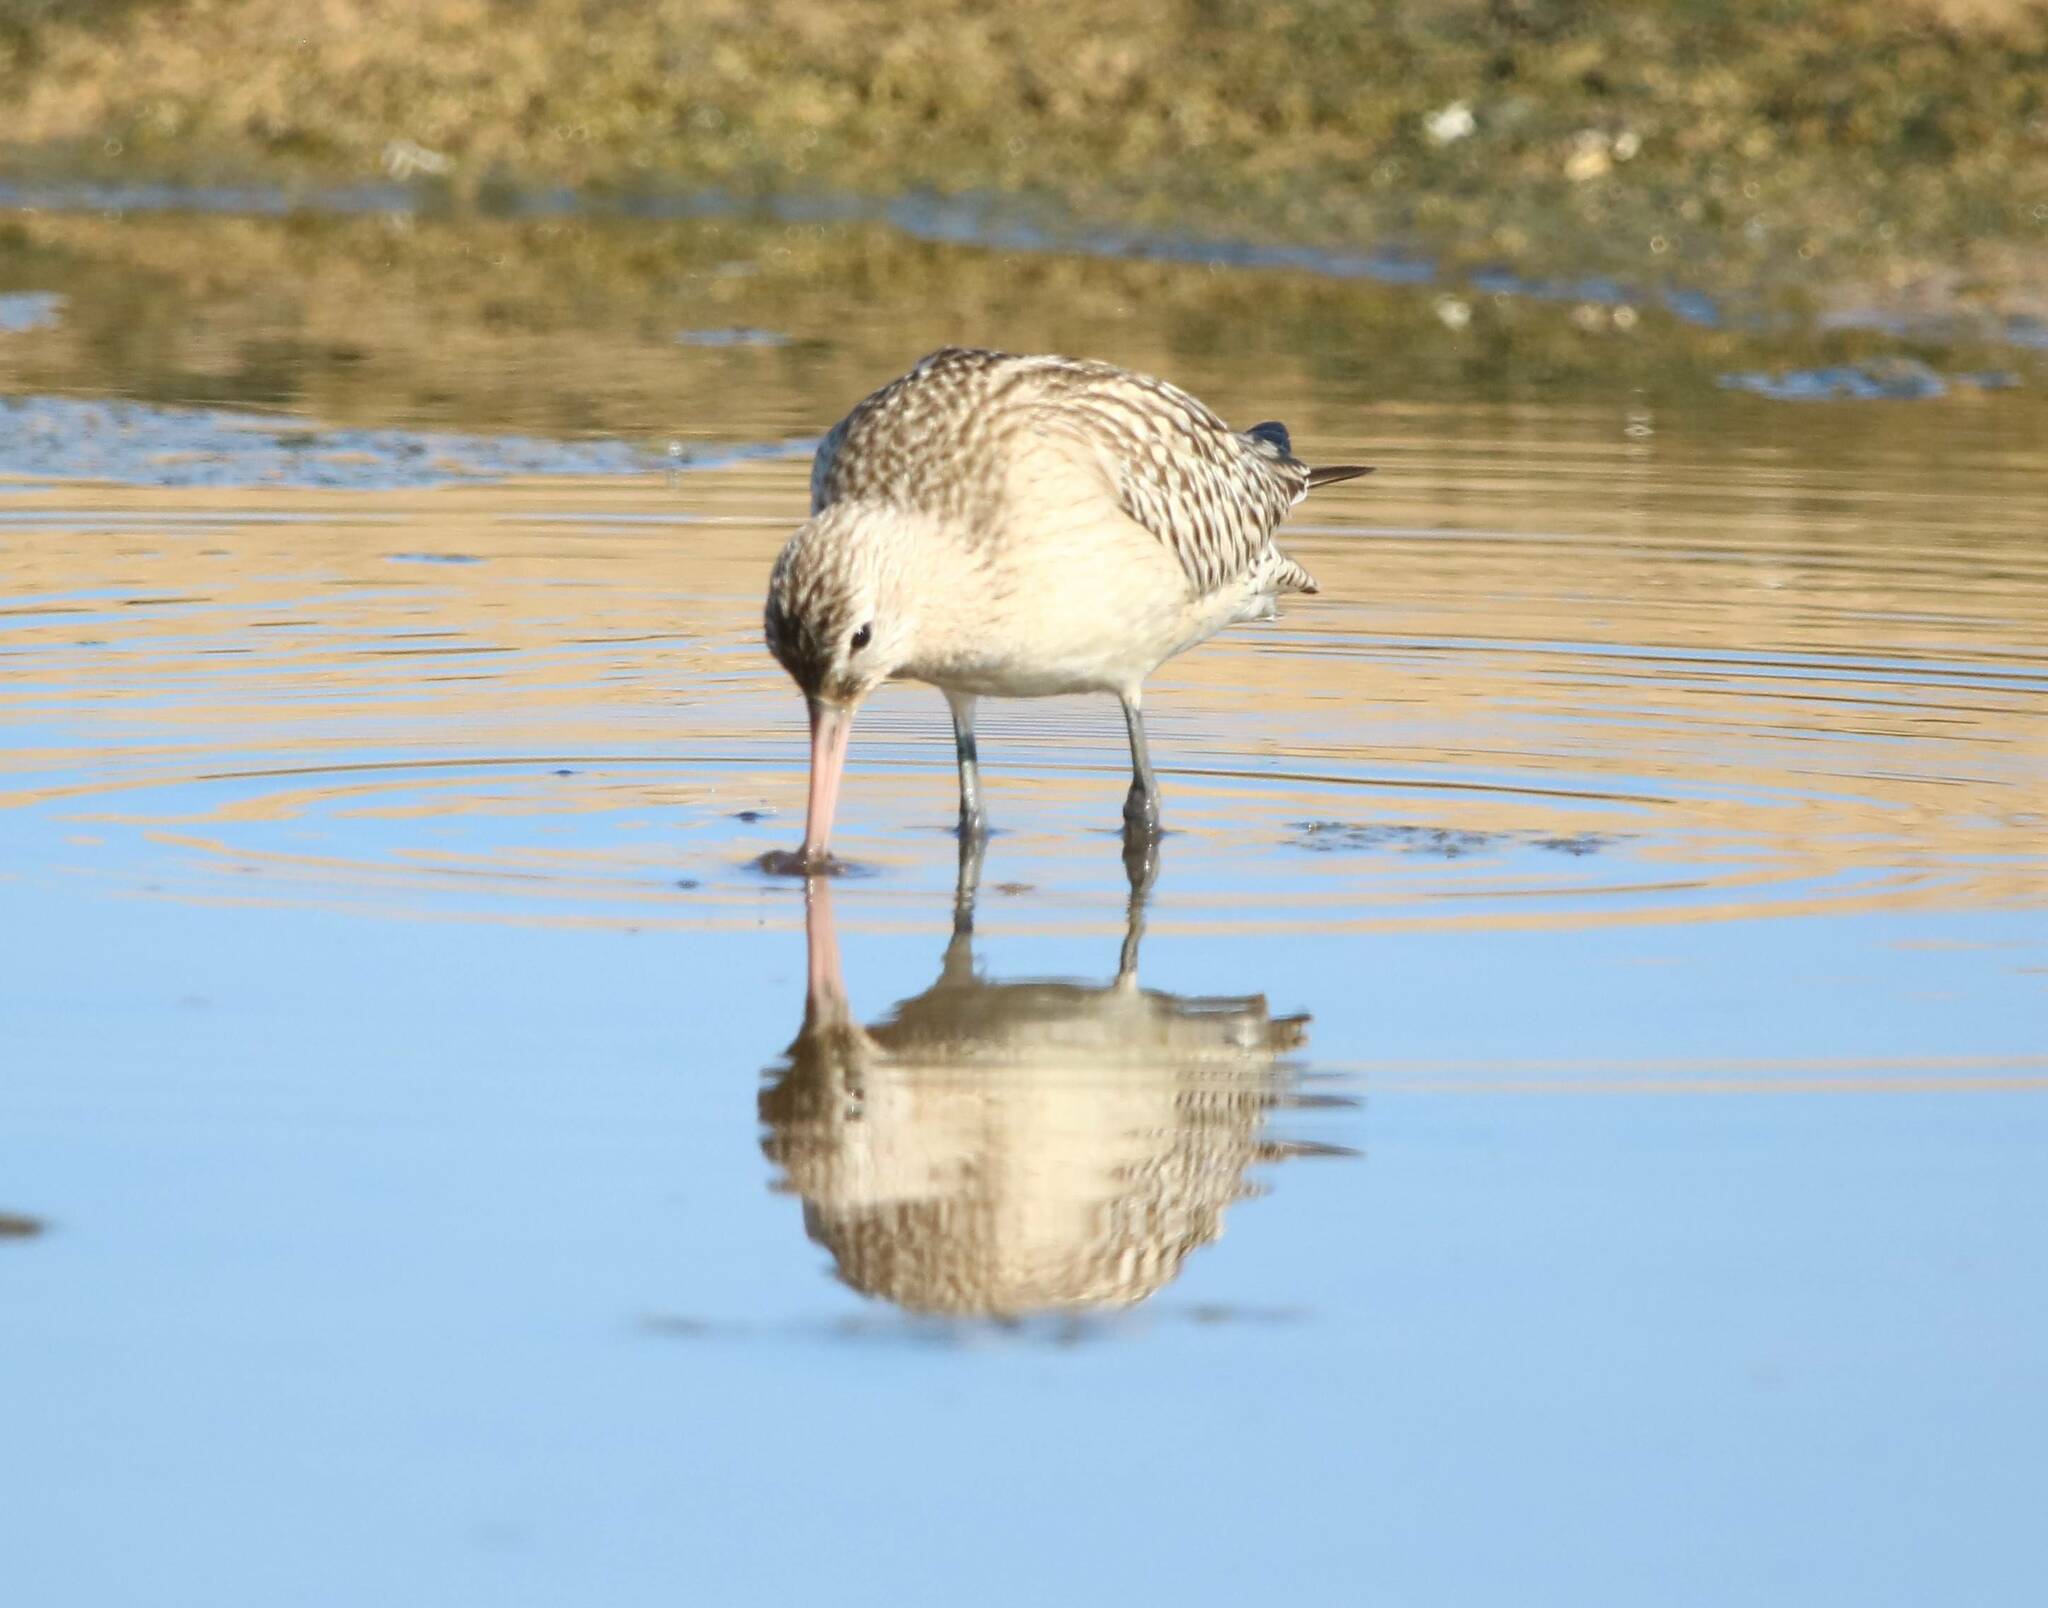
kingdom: Animalia
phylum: Chordata
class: Aves
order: Charadriiformes
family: Scolopacidae
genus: Limosa
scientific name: Limosa lapponica
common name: Bar-tailed godwit
